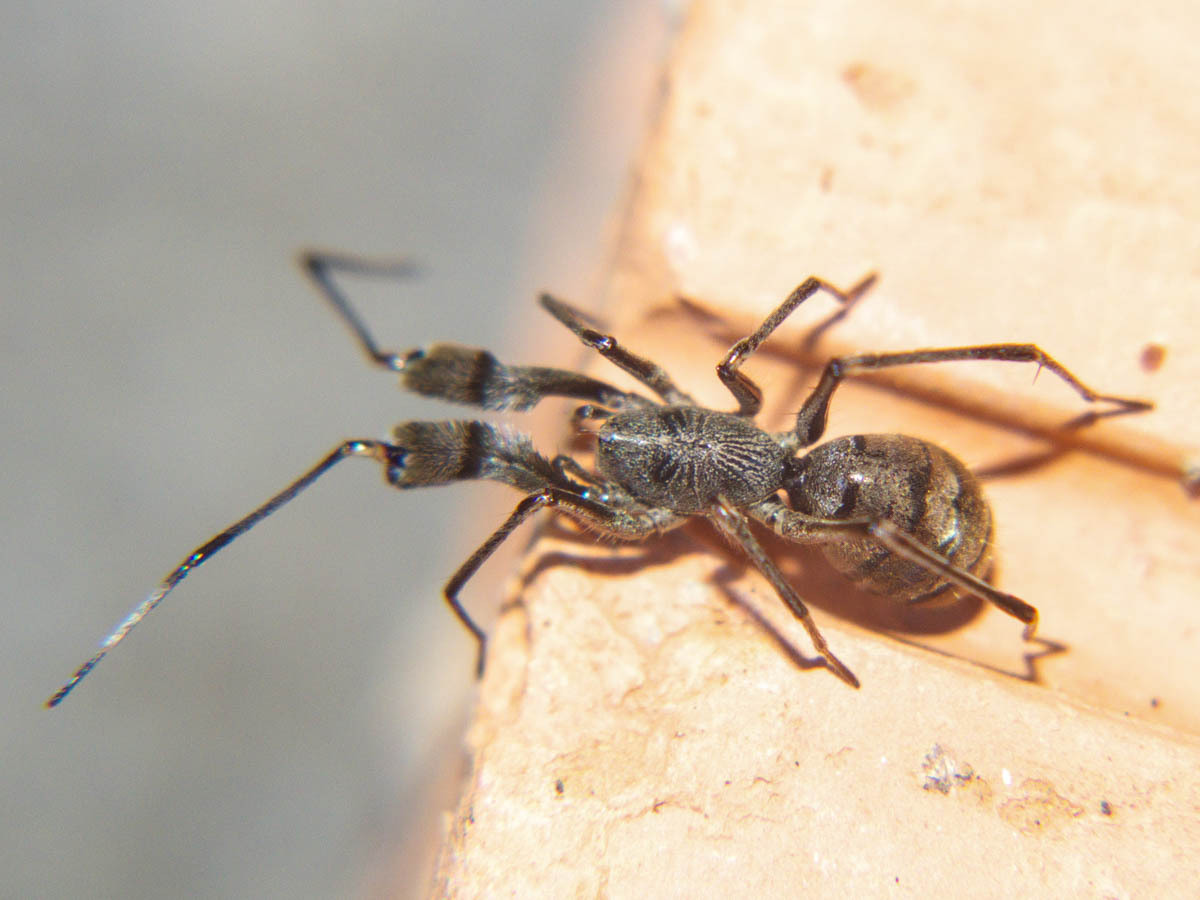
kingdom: Animalia
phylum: Arthropoda
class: Arachnida
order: Araneae
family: Corinnidae
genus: Pranburia
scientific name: Pranburia mahannopi
